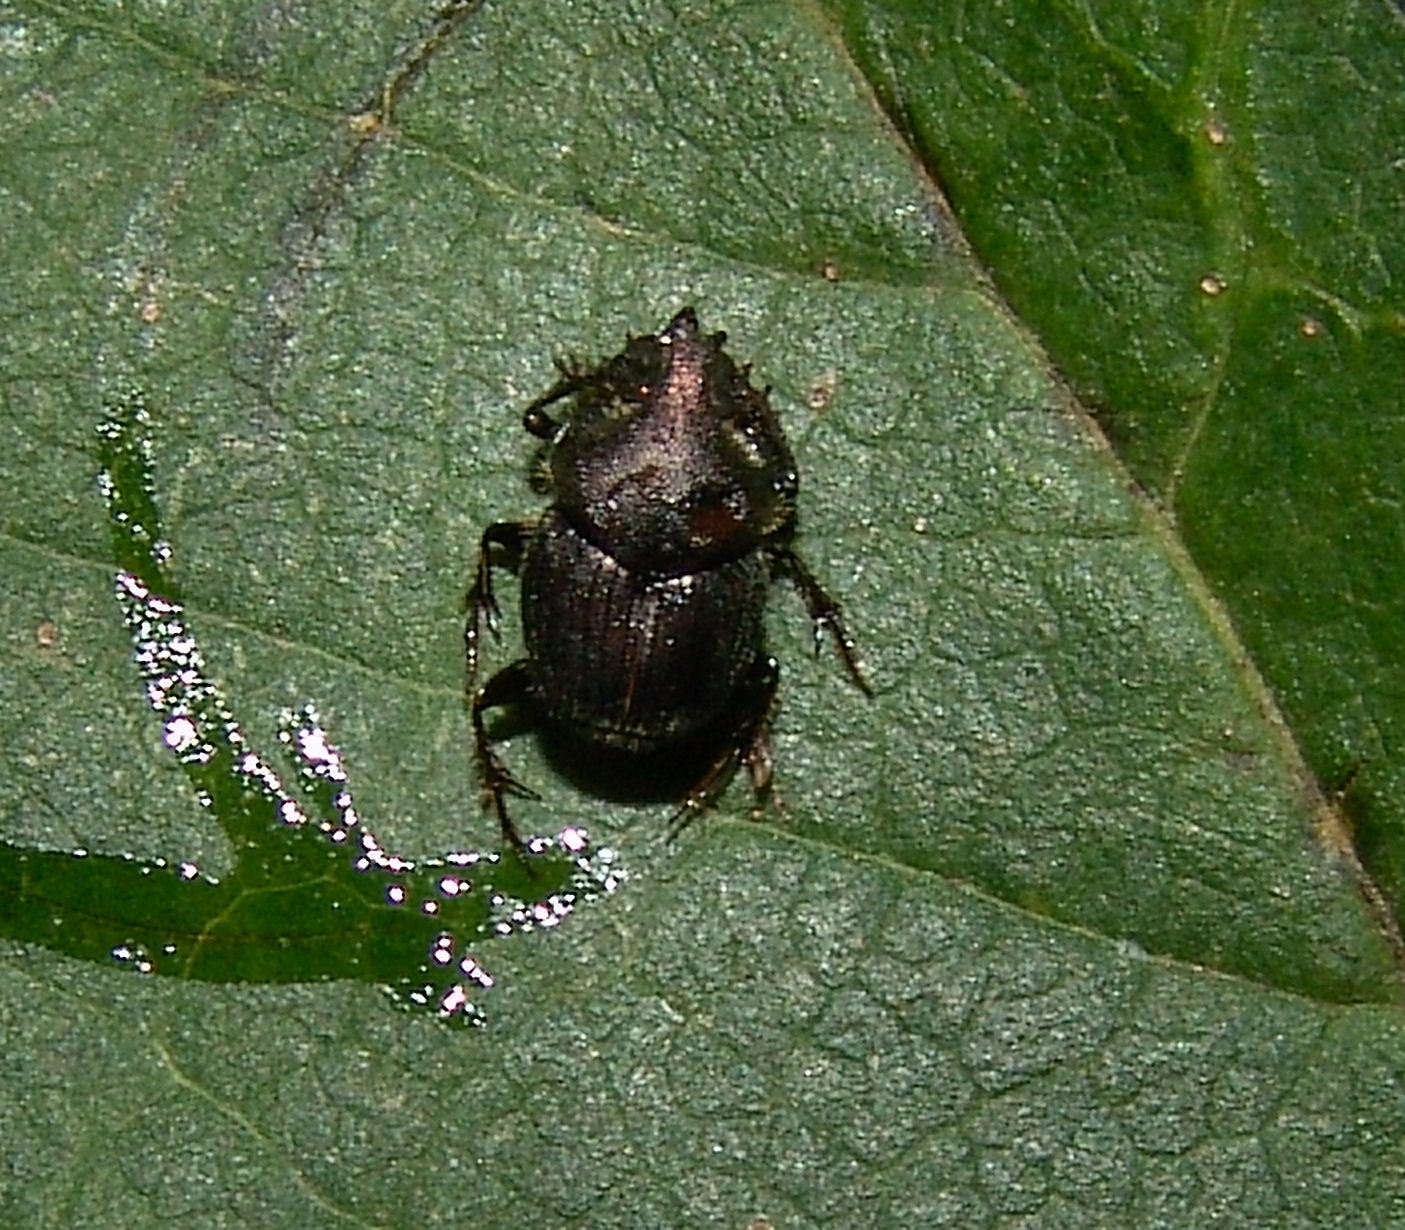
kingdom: Animalia
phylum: Arthropoda
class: Insecta
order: Coleoptera
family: Scarabaeidae
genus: Onthophagus
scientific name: Onthophagus hecate
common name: Scooped scarab
